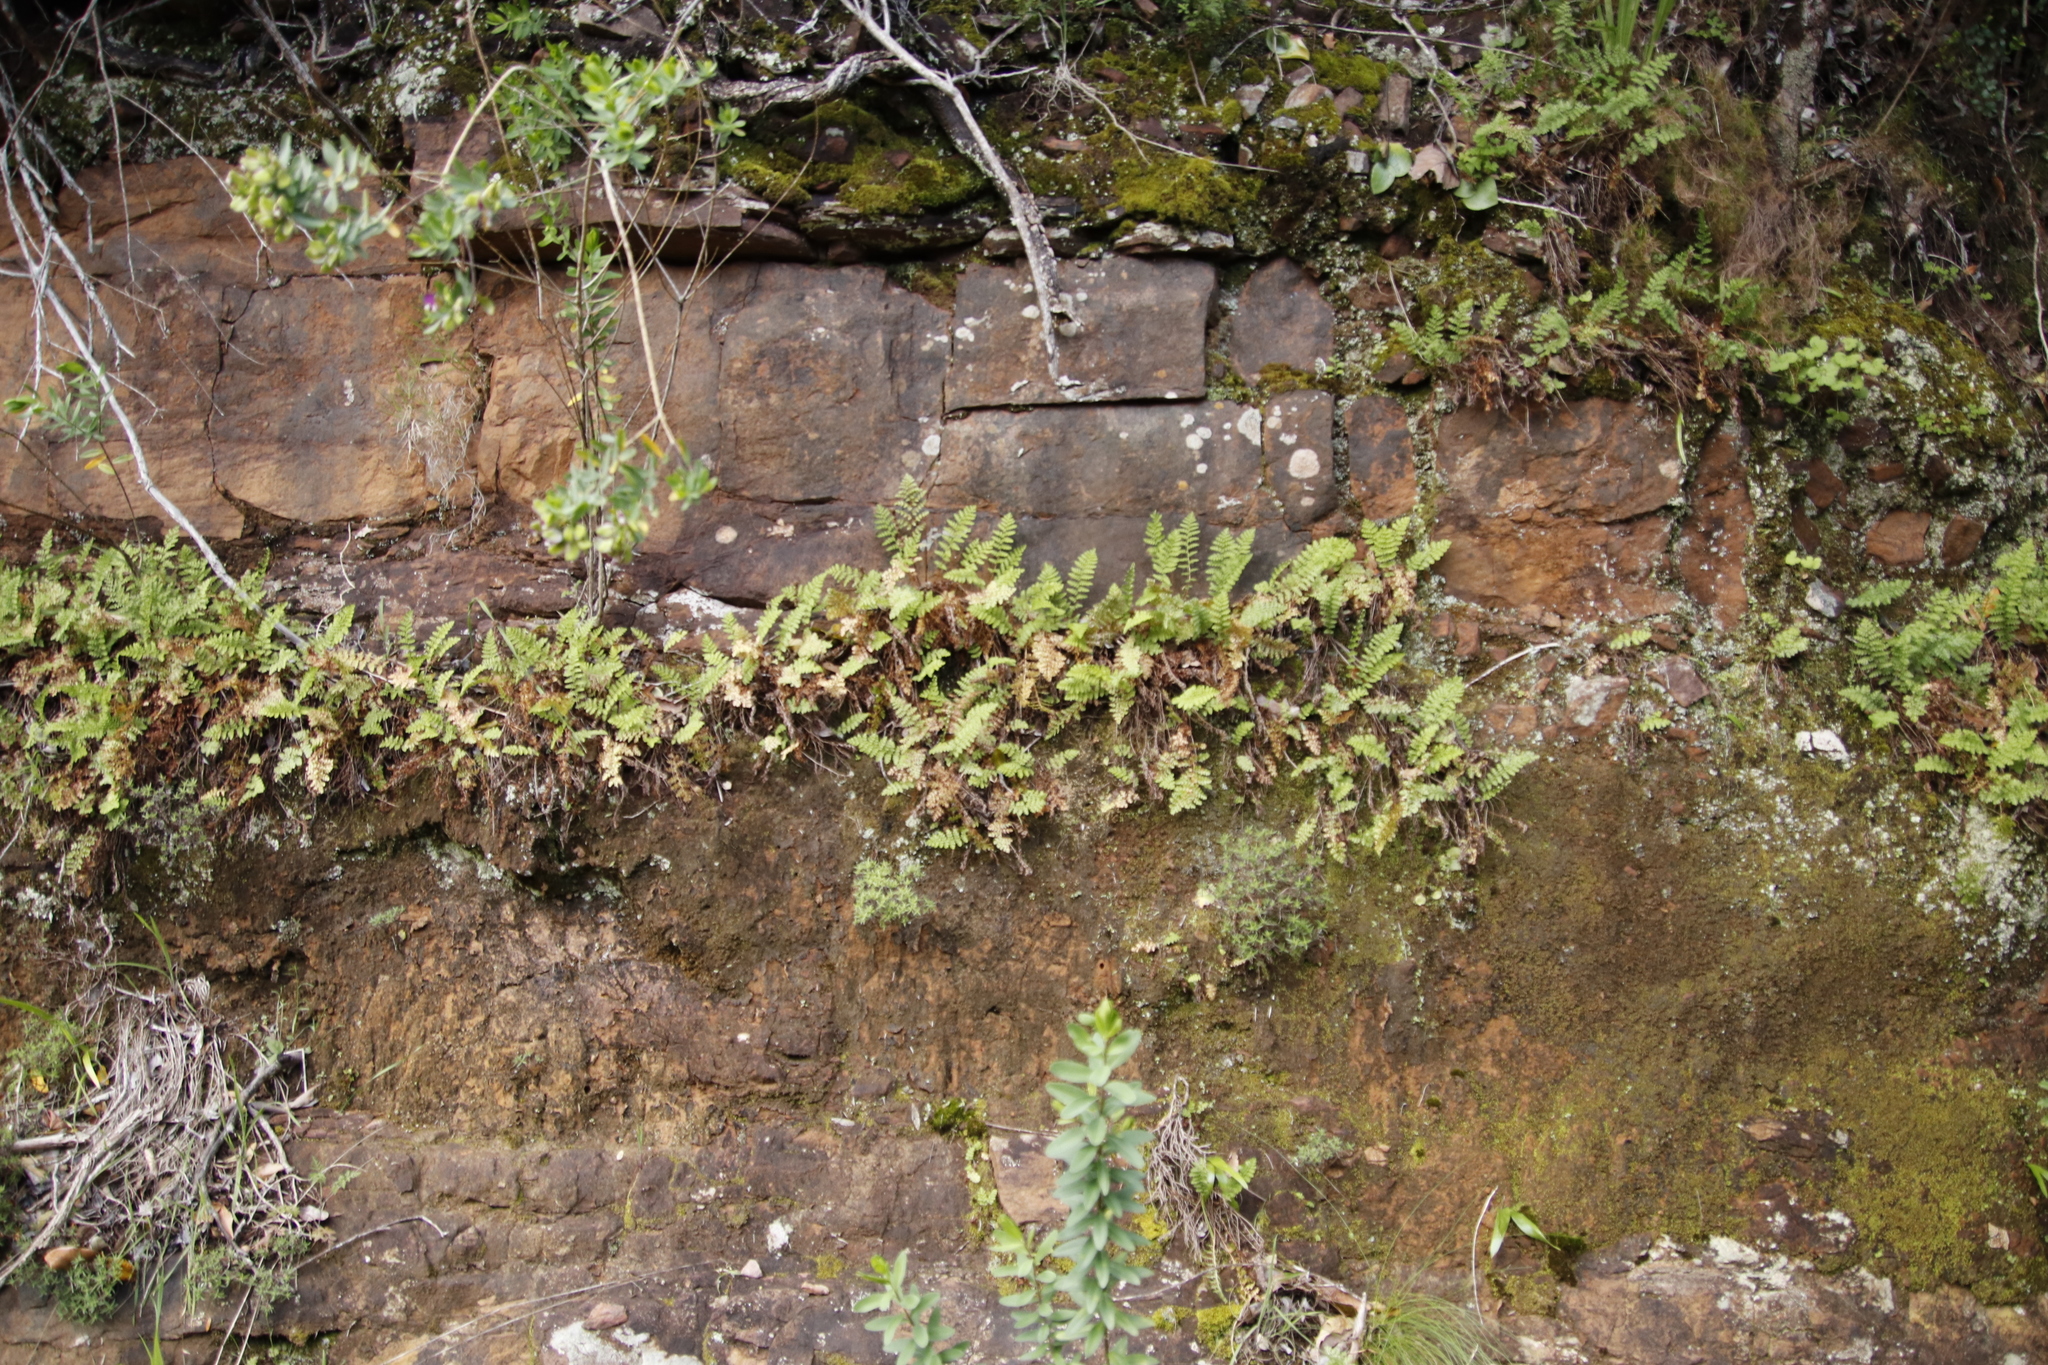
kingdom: Plantae
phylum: Tracheophyta
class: Polypodiopsida
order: Schizaeales
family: Anemiaceae
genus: Anemia
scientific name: Anemia caffrorum
